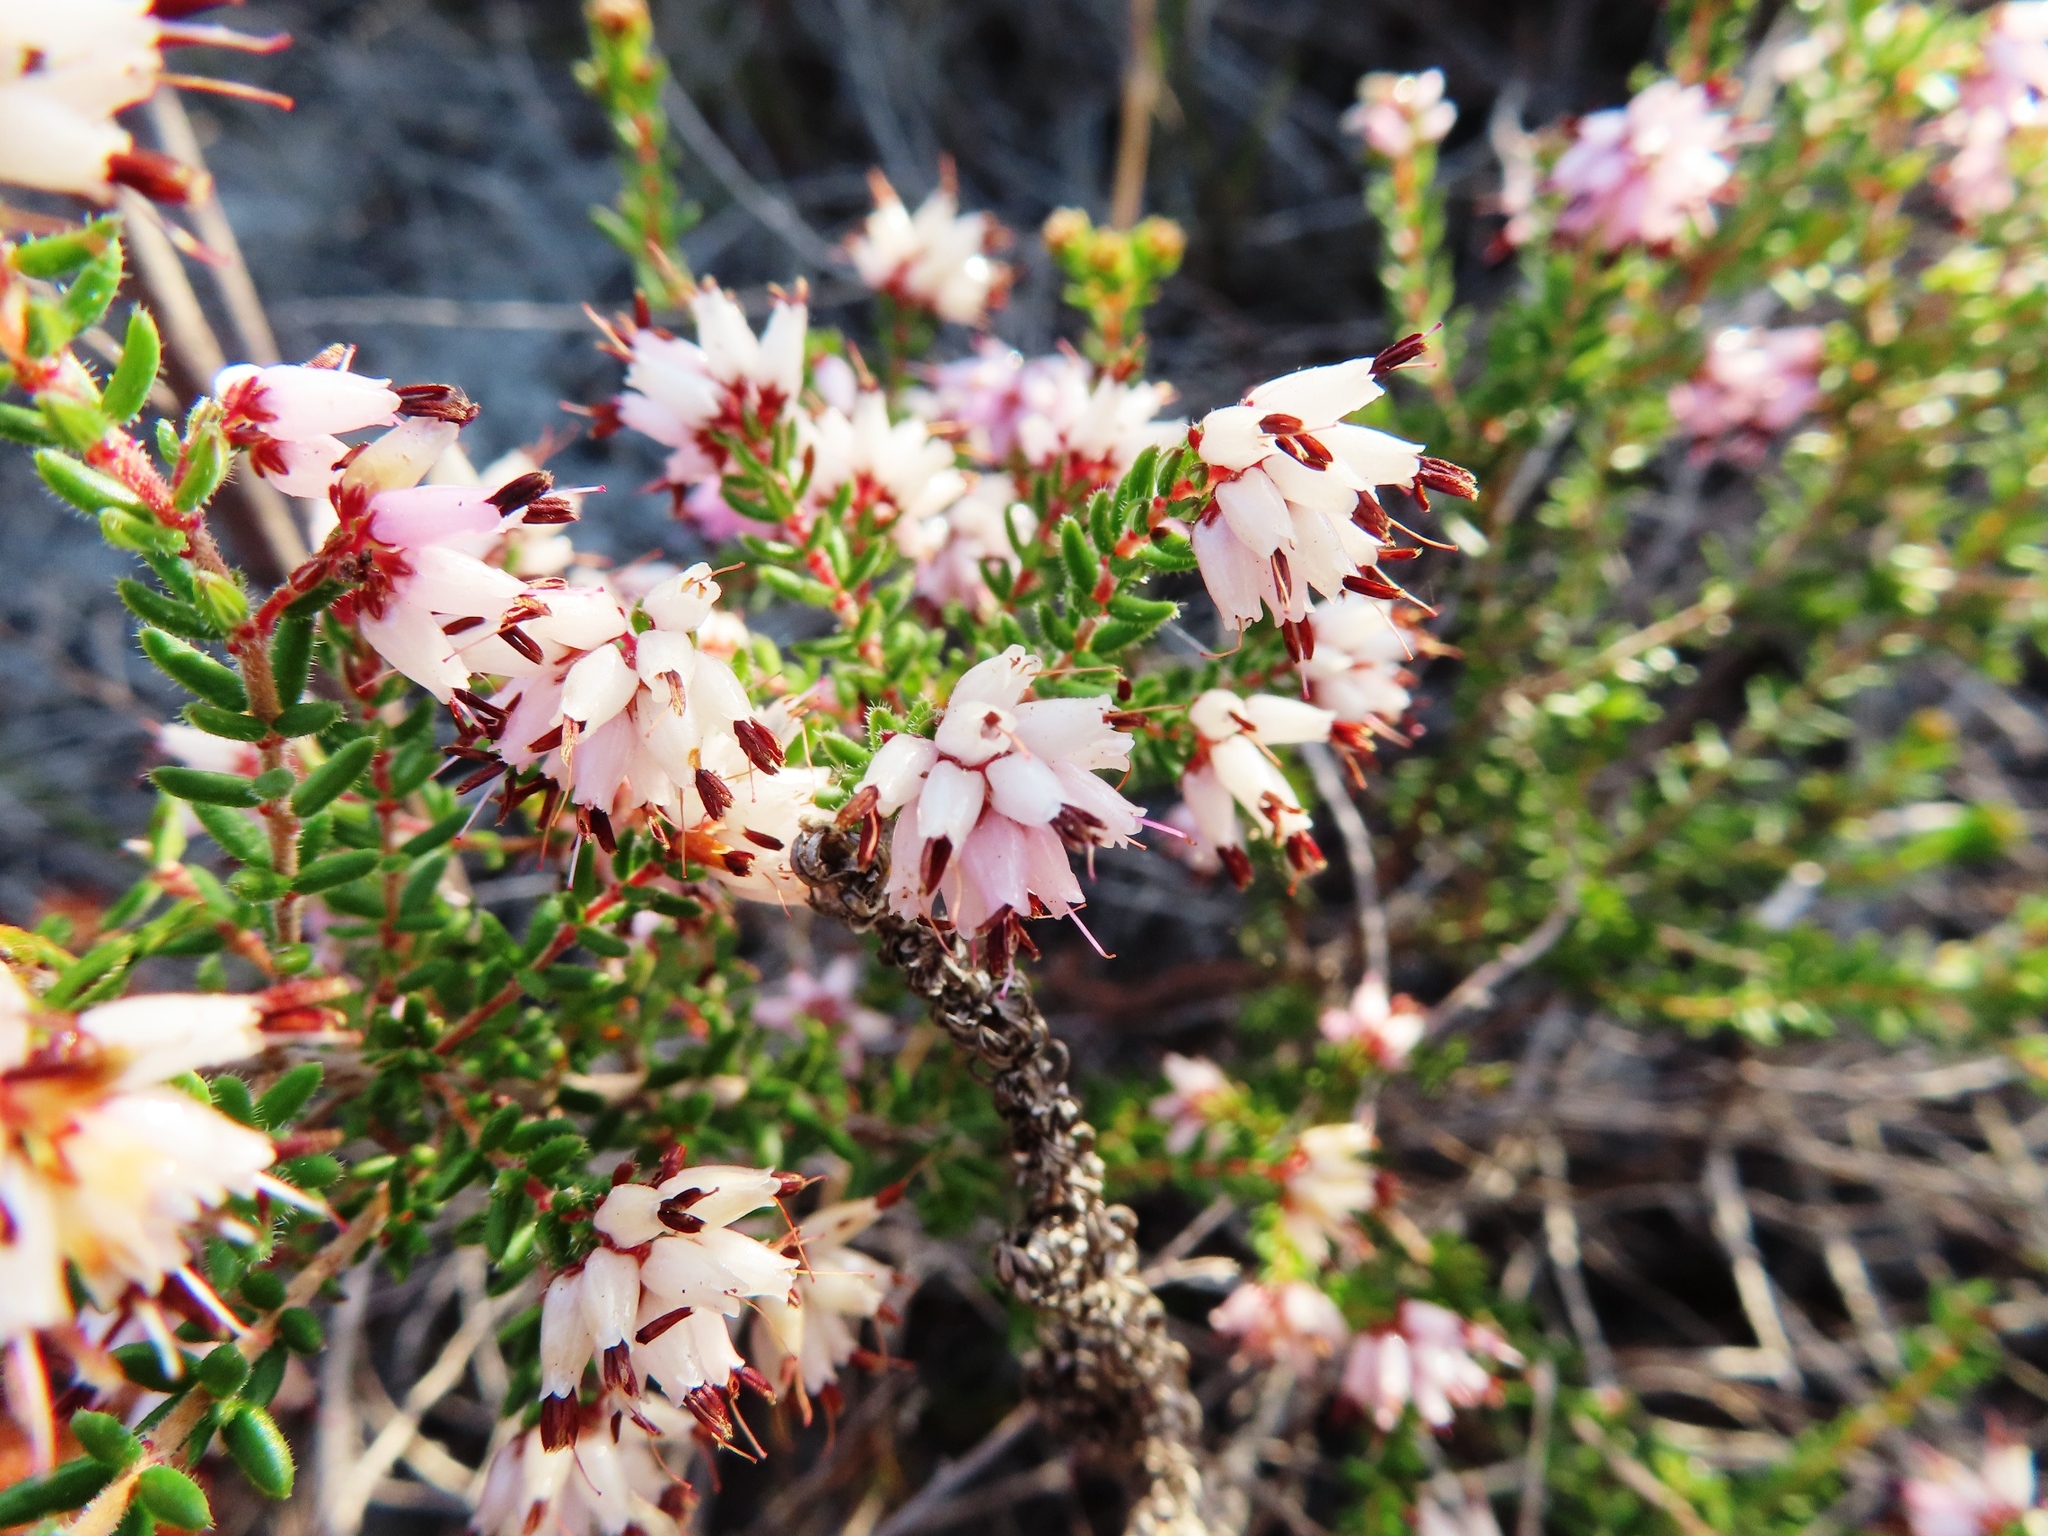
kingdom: Plantae
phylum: Tracheophyta
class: Magnoliopsida
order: Ericales
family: Ericaceae
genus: Erica
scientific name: Erica interrupta
